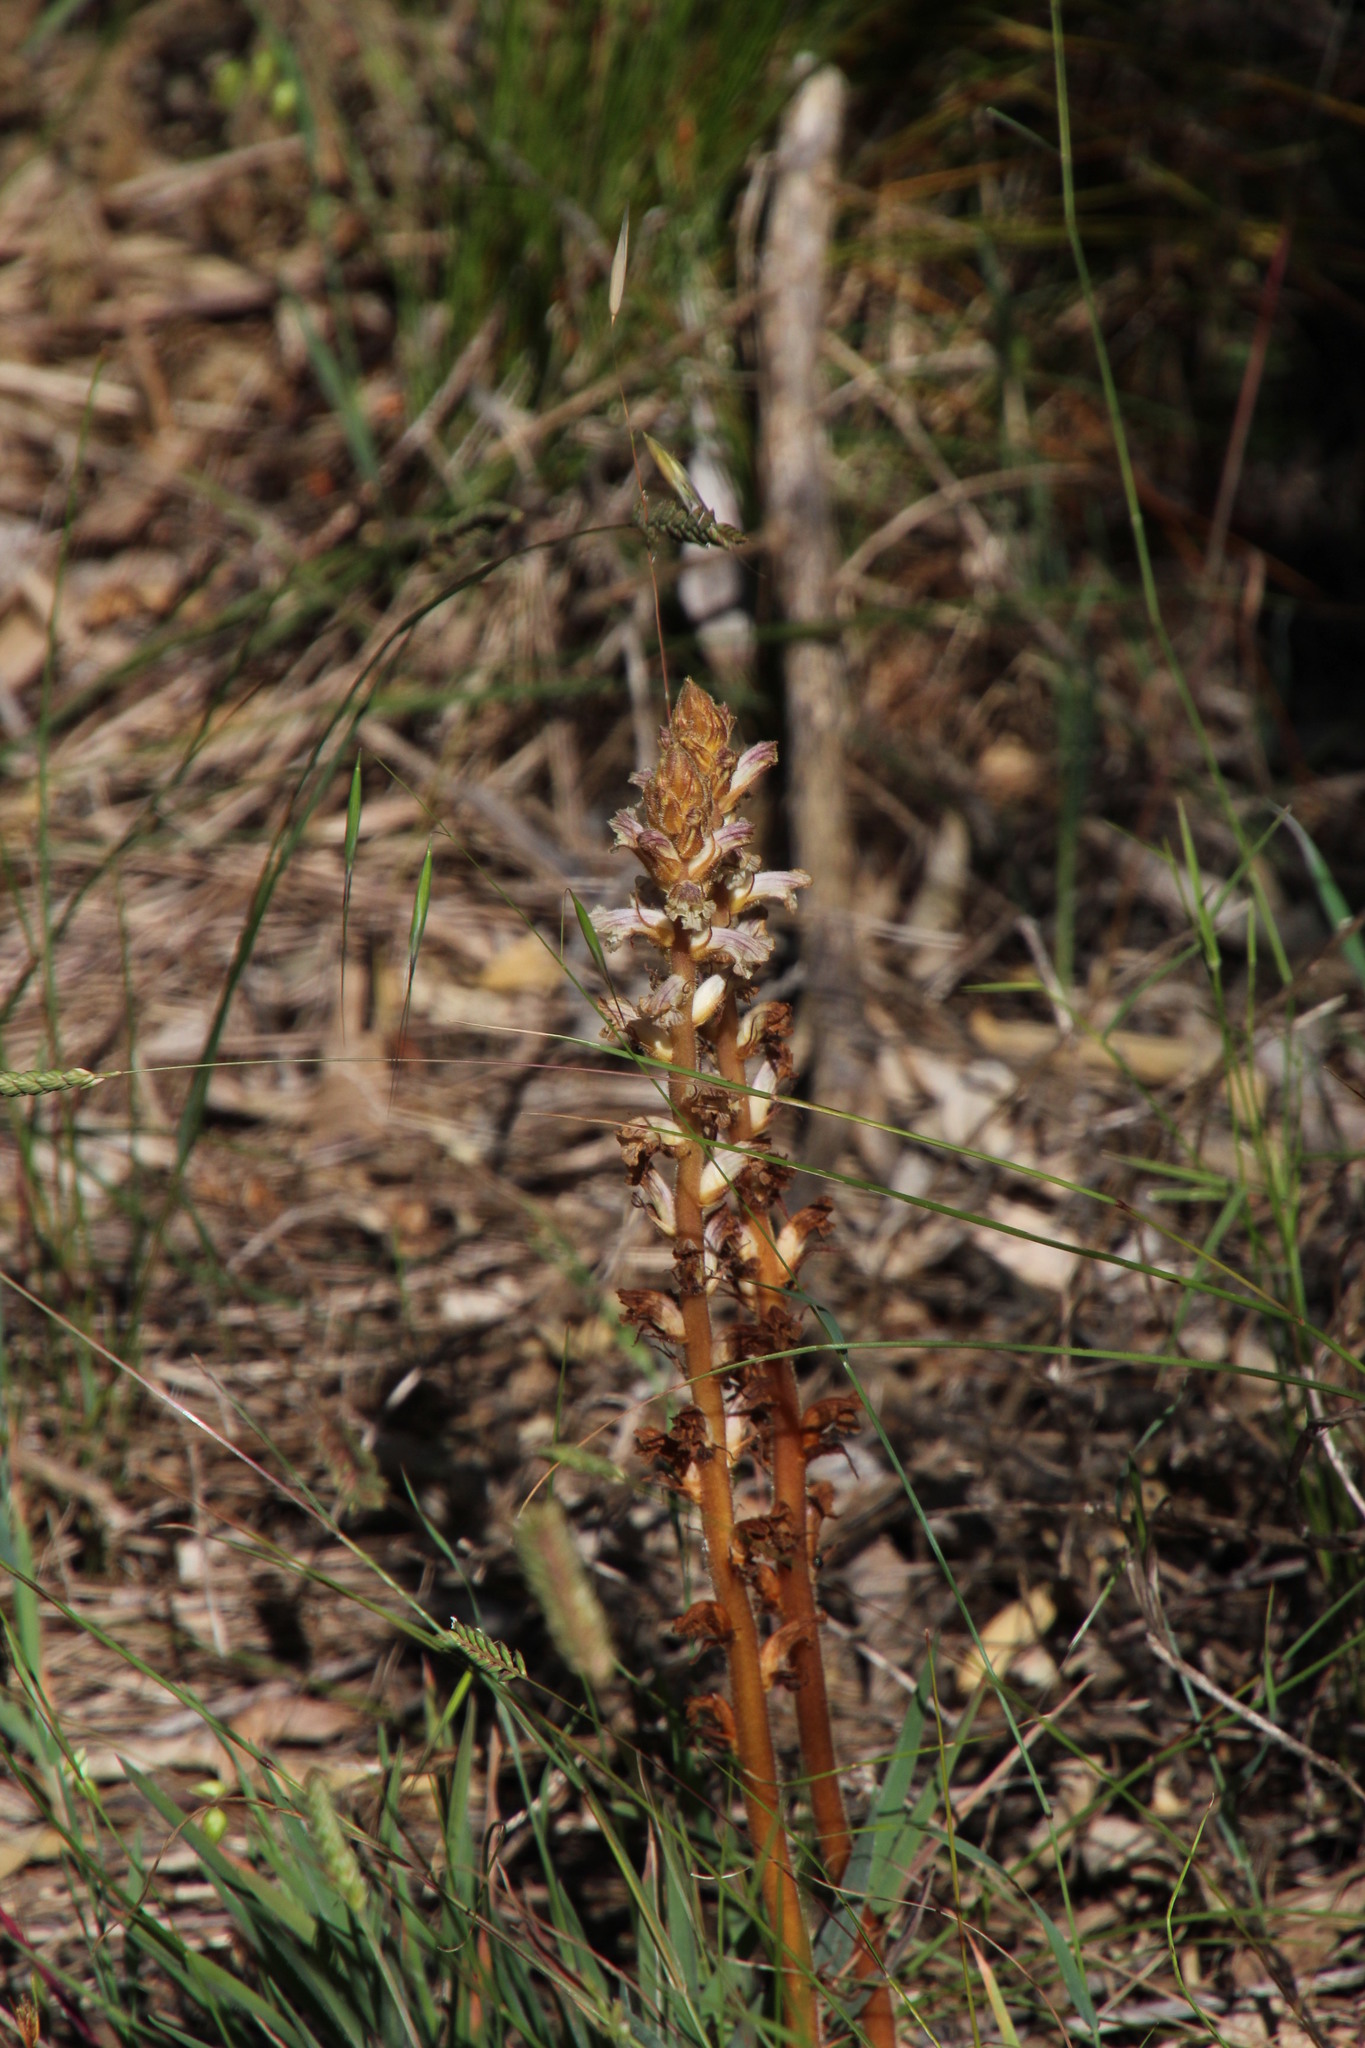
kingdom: Plantae
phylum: Tracheophyta
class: Magnoliopsida
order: Lamiales
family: Orobanchaceae
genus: Orobanche
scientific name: Orobanche minor
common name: Common broomrape
